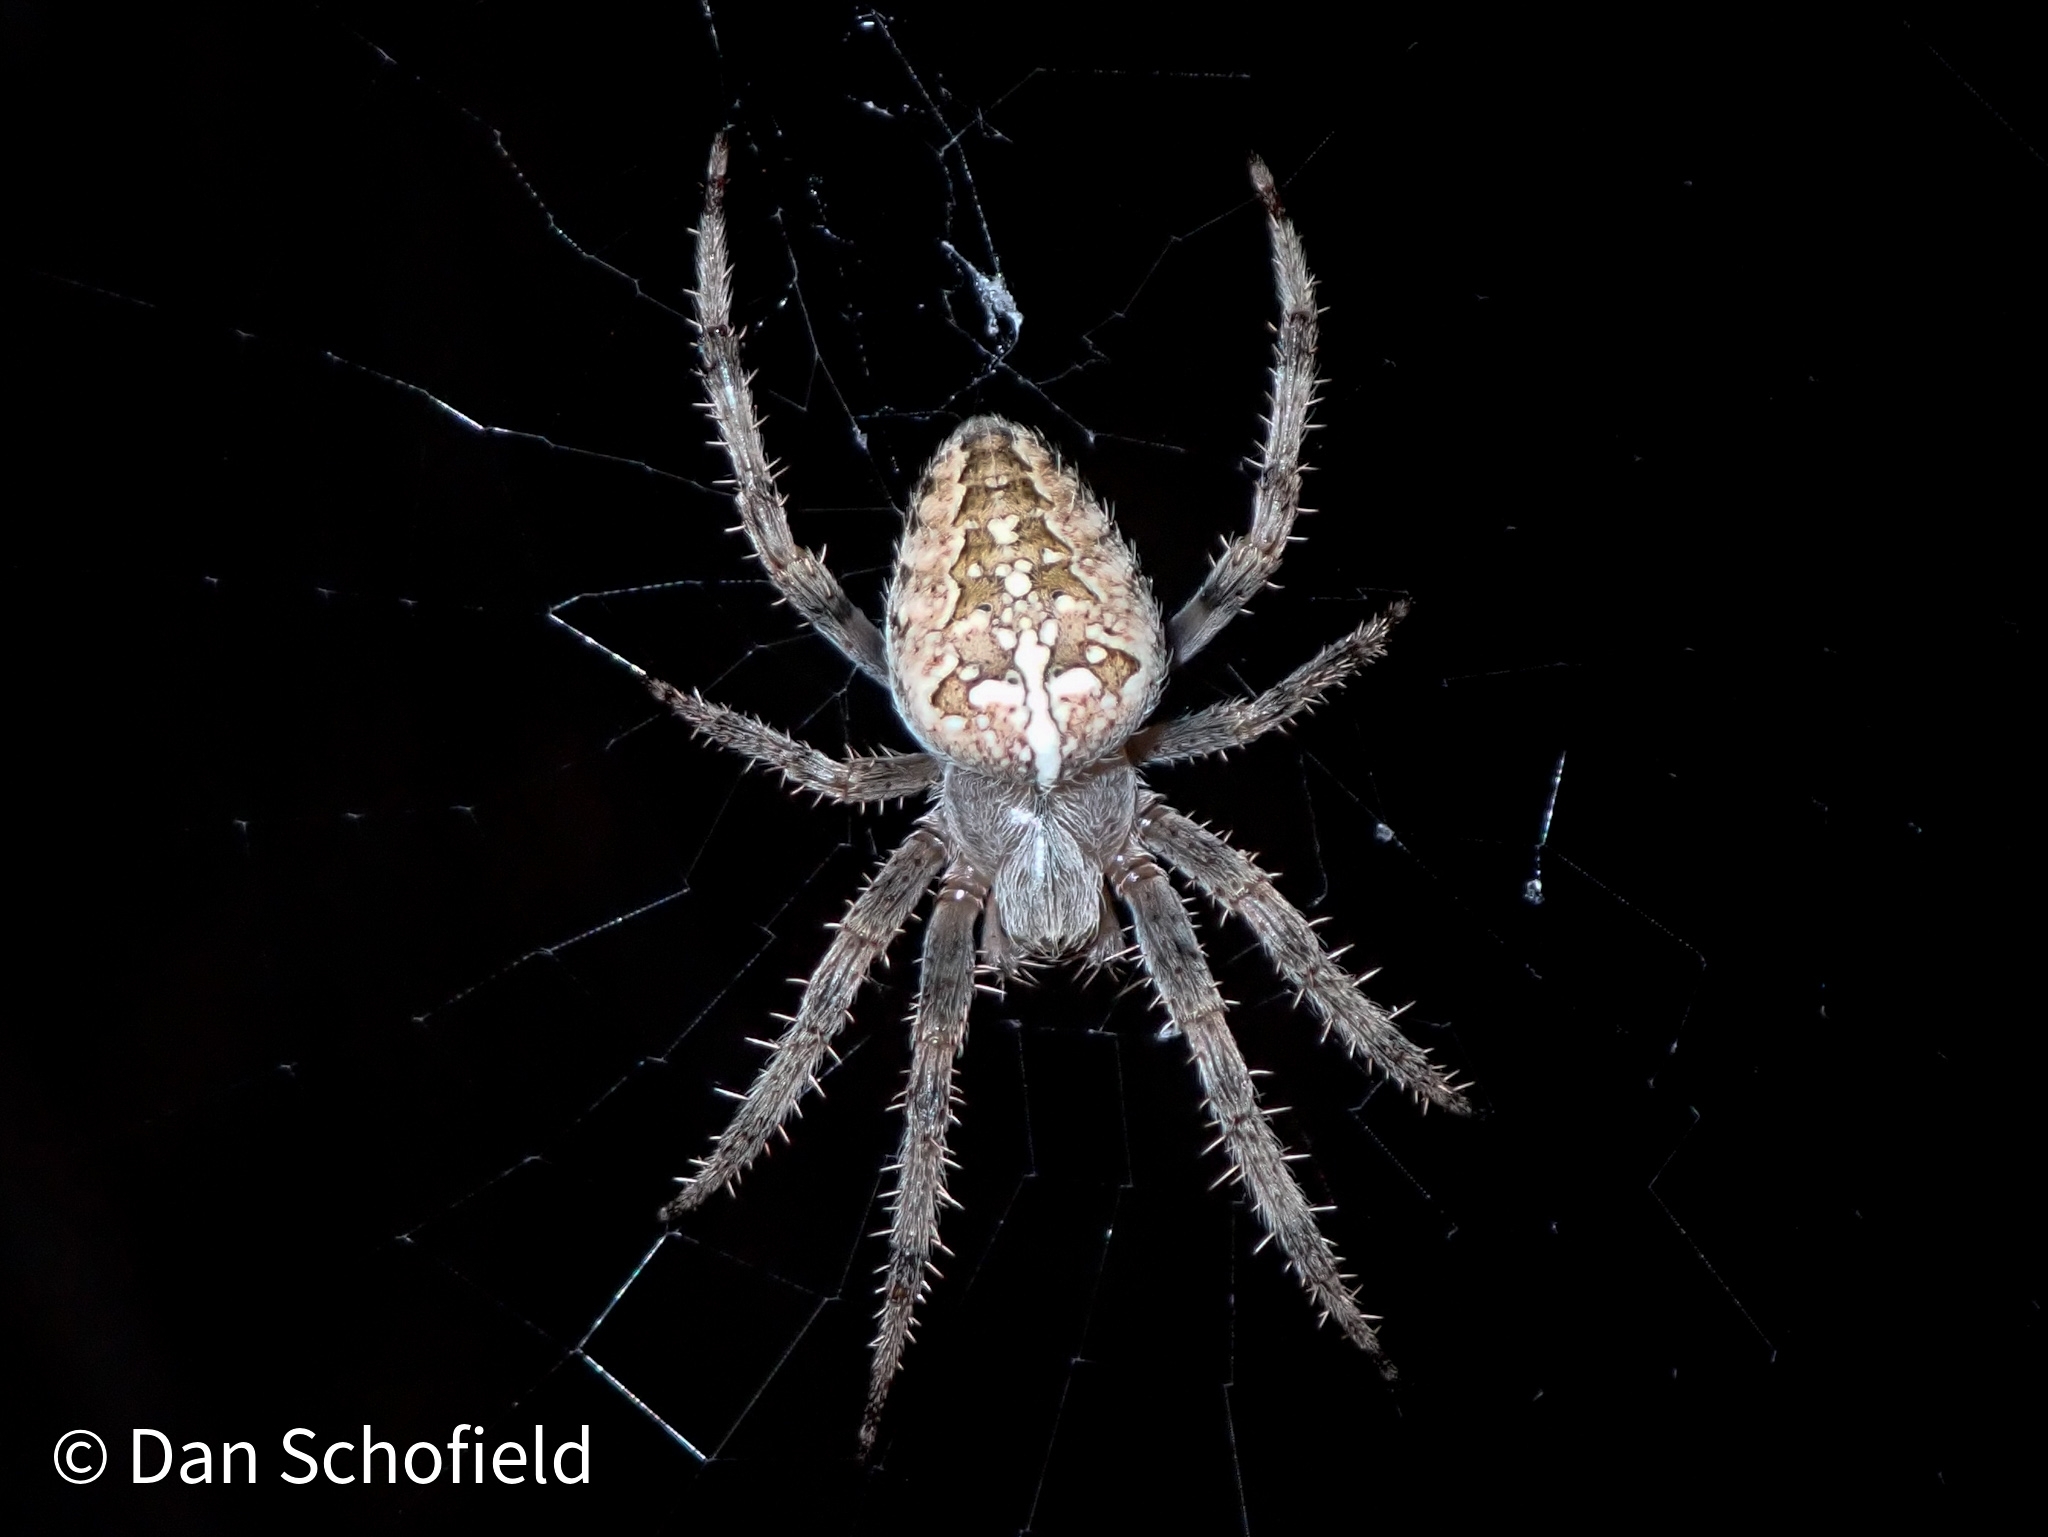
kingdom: Animalia
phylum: Arthropoda
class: Arachnida
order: Araneae
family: Araneidae
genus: Araneus
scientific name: Araneus diadematus
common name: Cross orbweaver
